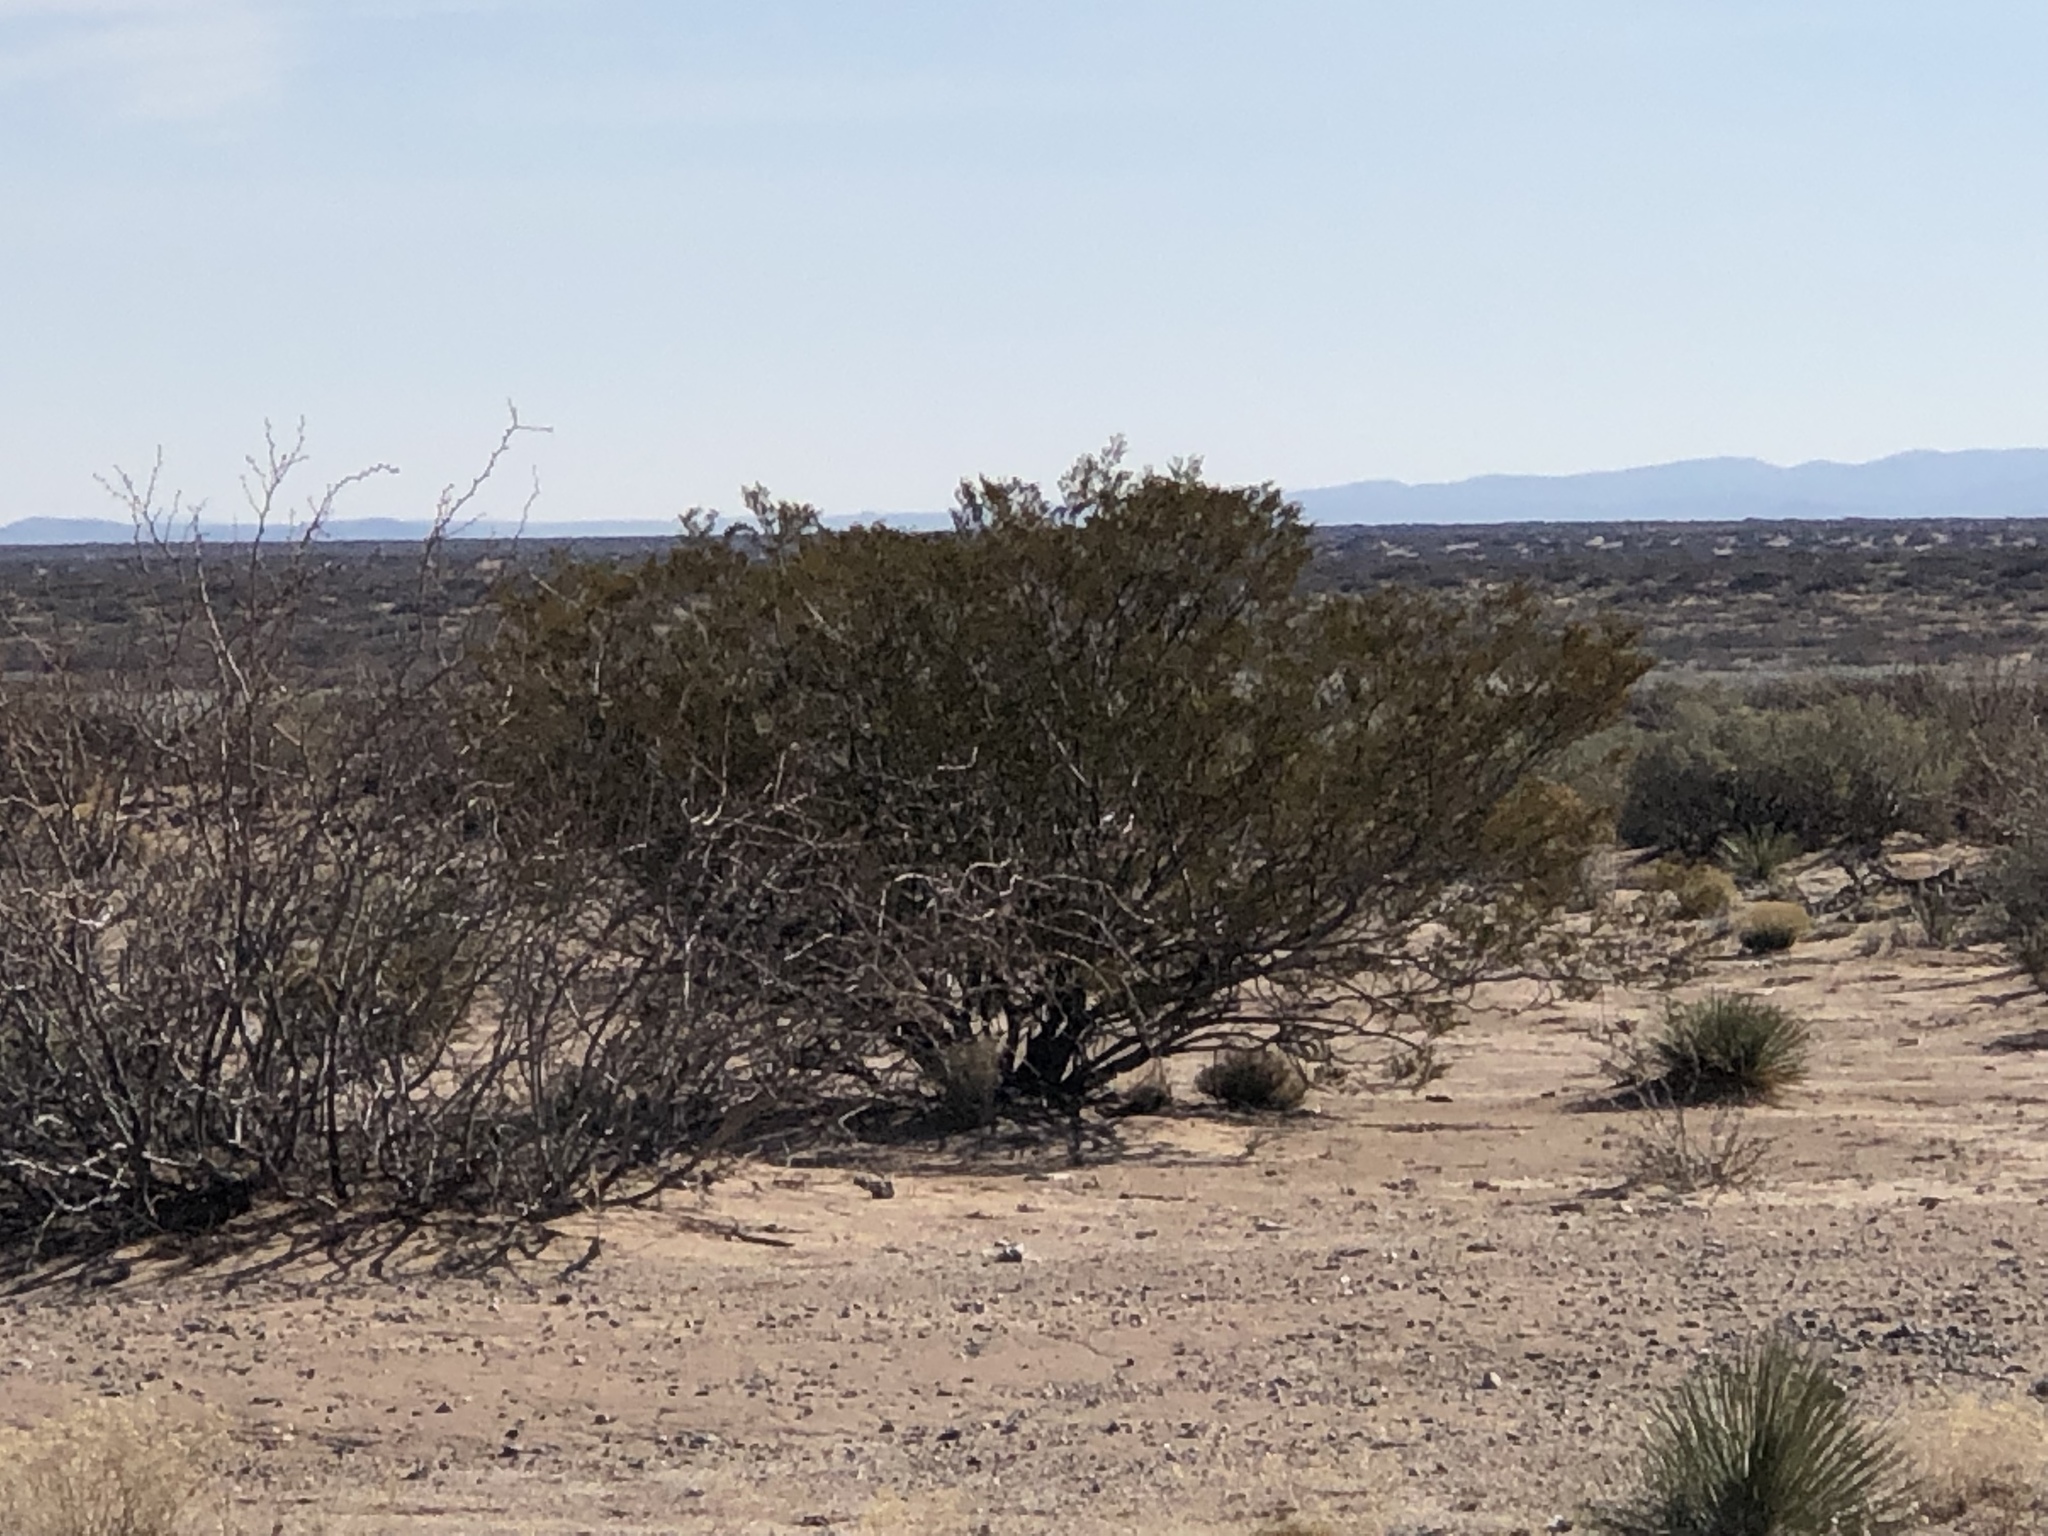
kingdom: Plantae
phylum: Tracheophyta
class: Magnoliopsida
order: Zygophyllales
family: Zygophyllaceae
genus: Larrea
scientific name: Larrea tridentata
